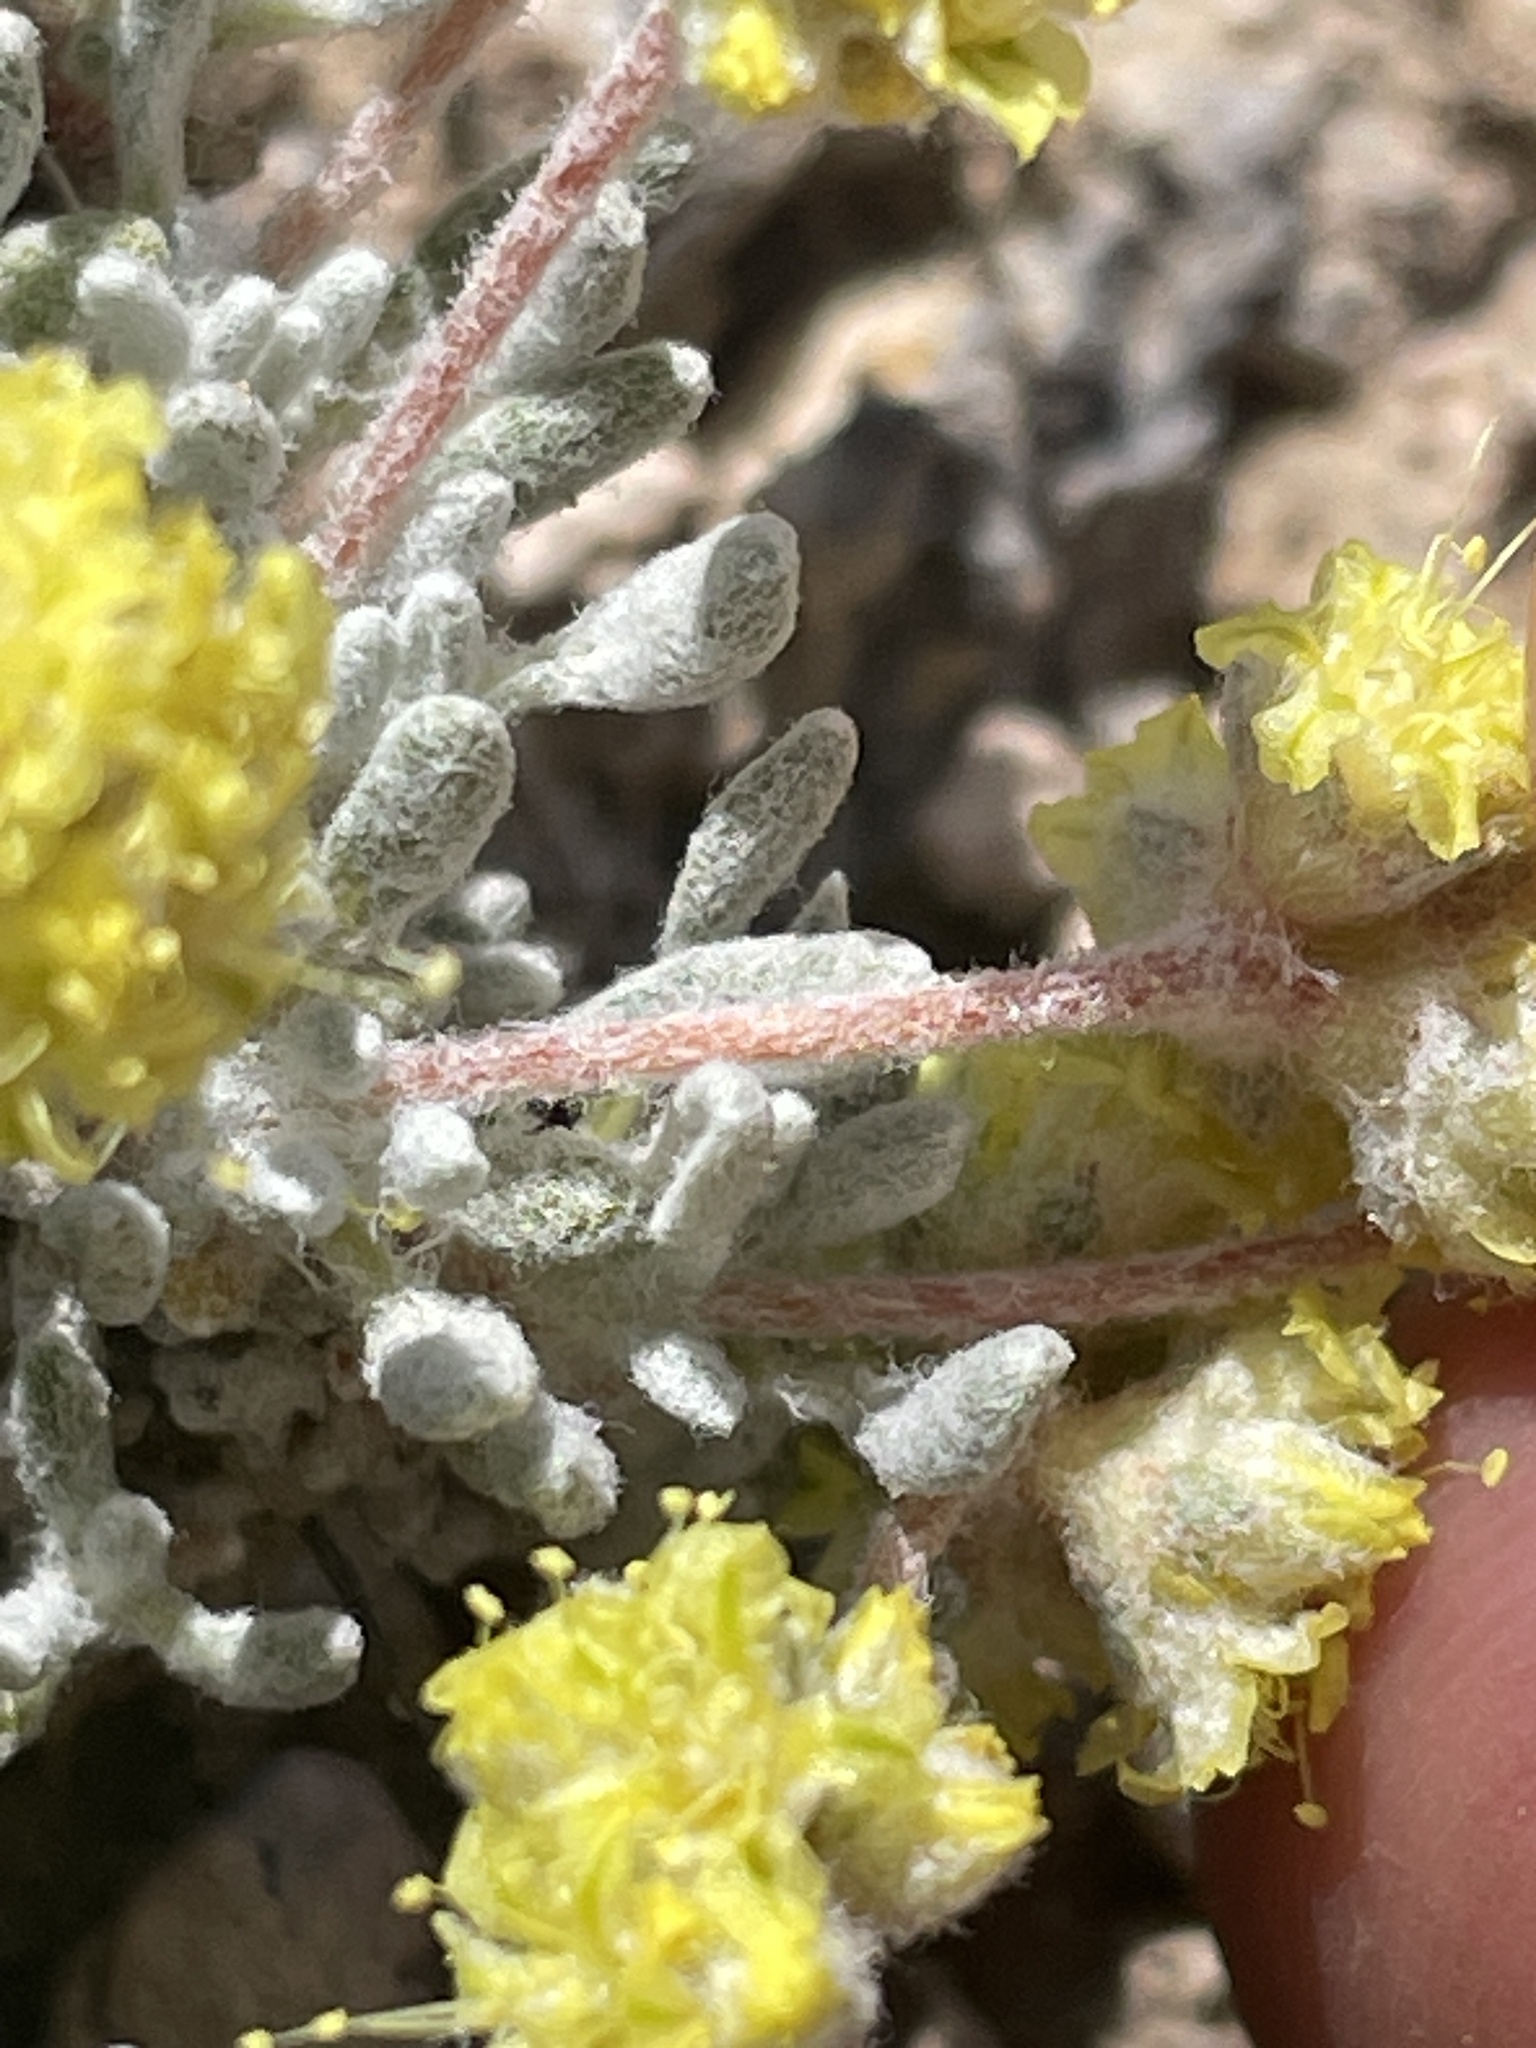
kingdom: Plantae
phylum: Tracheophyta
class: Magnoliopsida
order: Caryophyllales
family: Polygonaceae
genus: Eriogonum
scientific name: Eriogonum shockleyi
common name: Shockley's wild buckwheat
